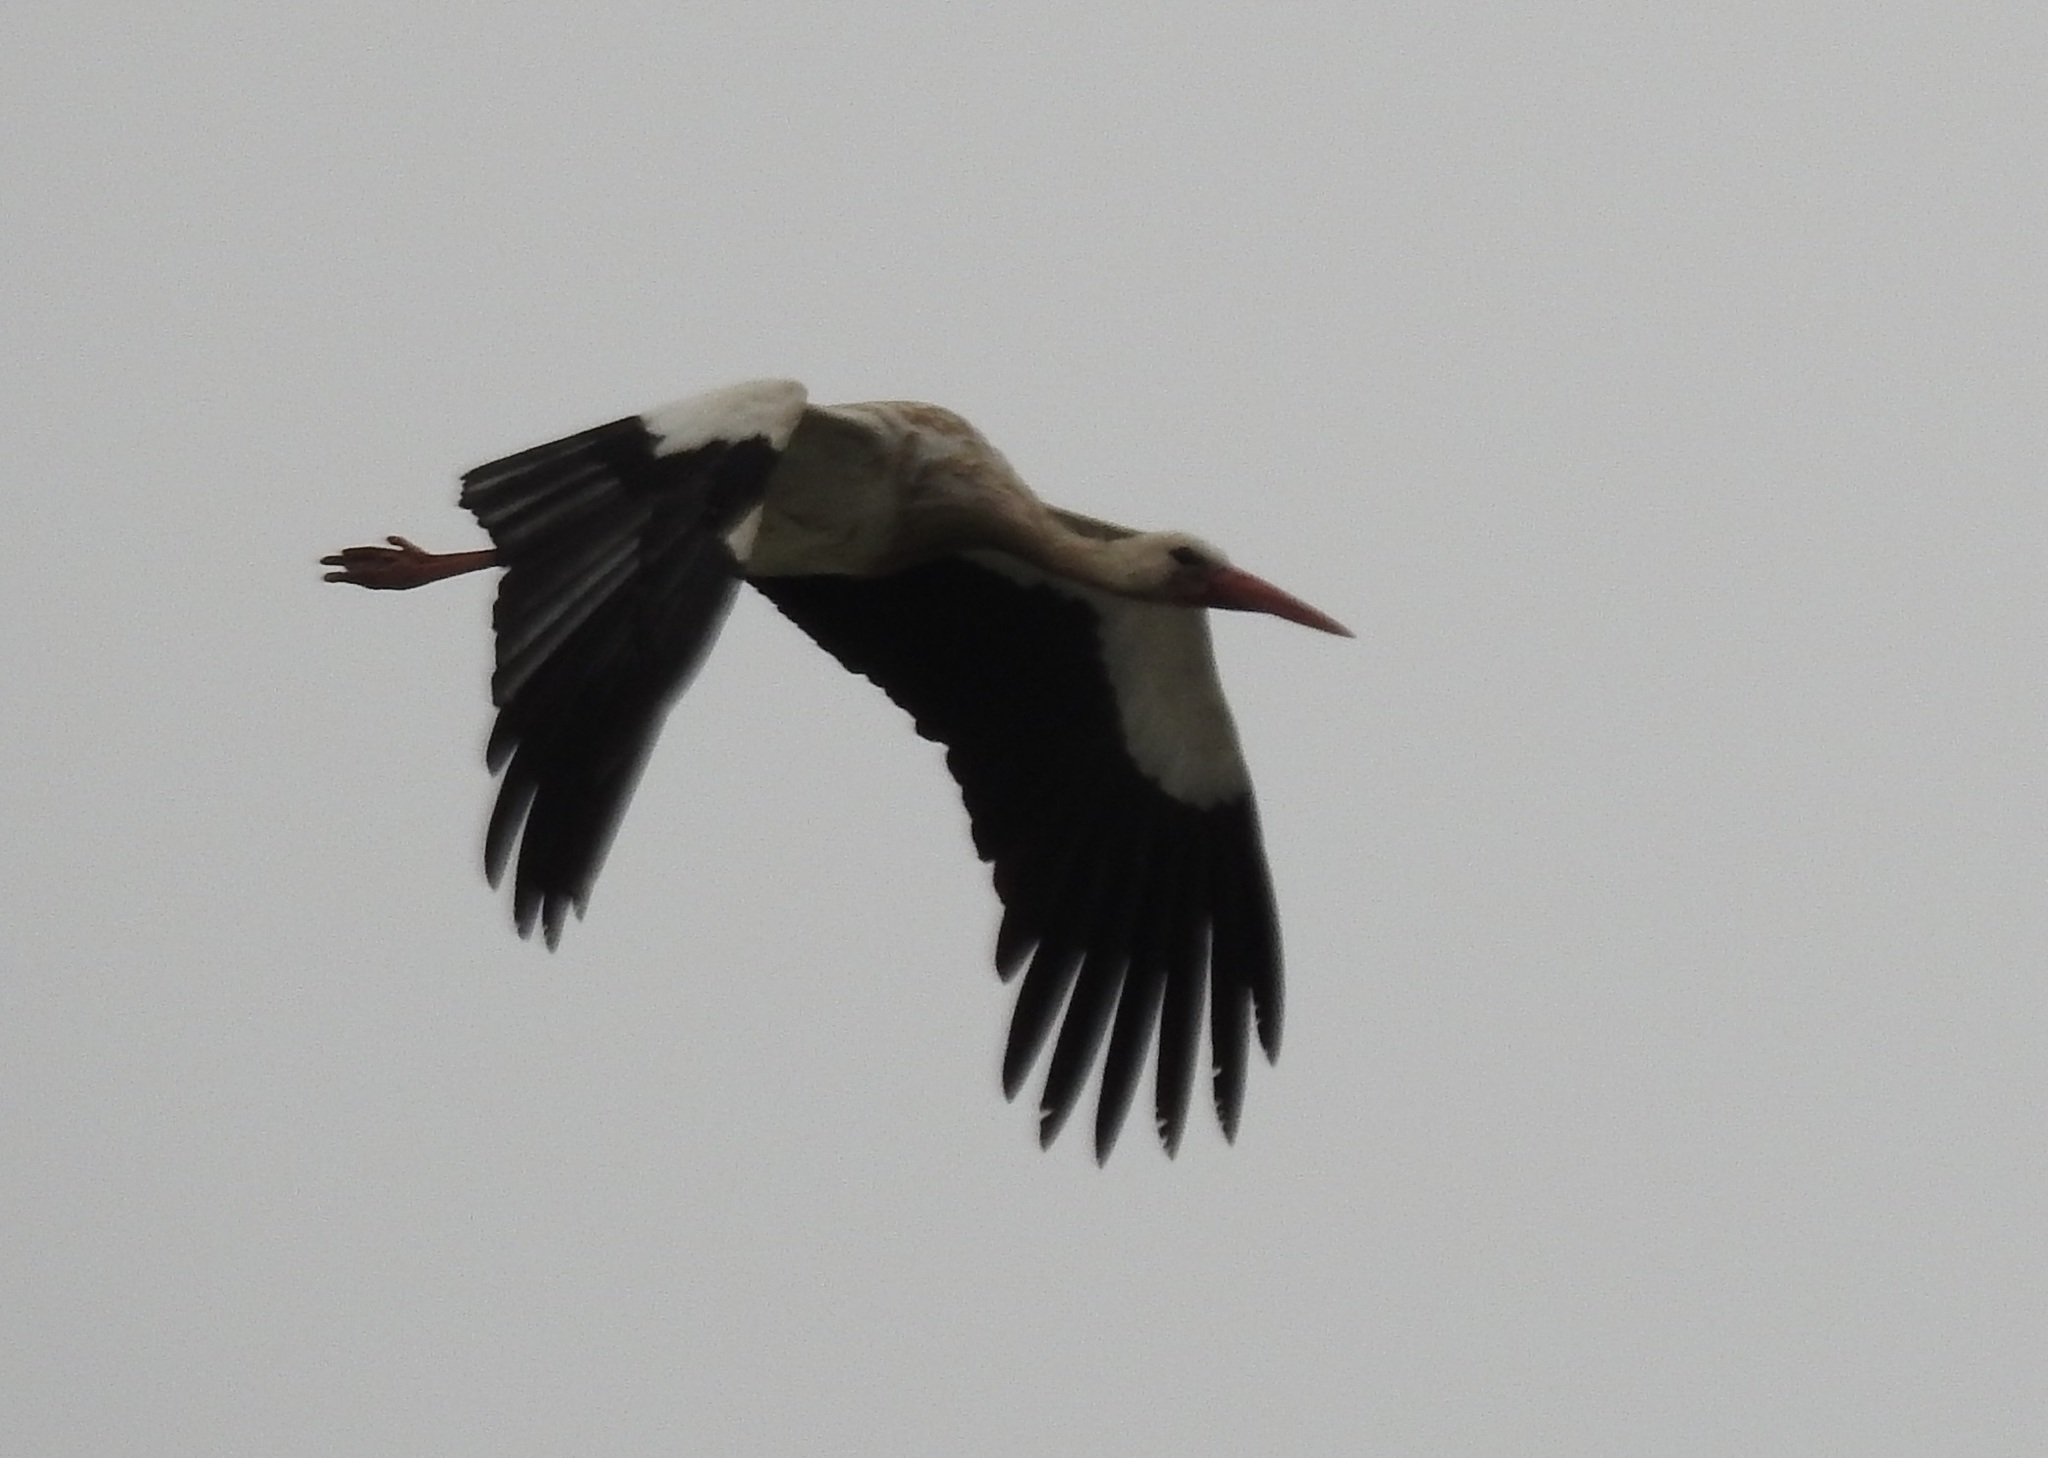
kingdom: Animalia
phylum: Chordata
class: Aves
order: Ciconiiformes
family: Ciconiidae
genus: Ciconia
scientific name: Ciconia ciconia
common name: White stork
